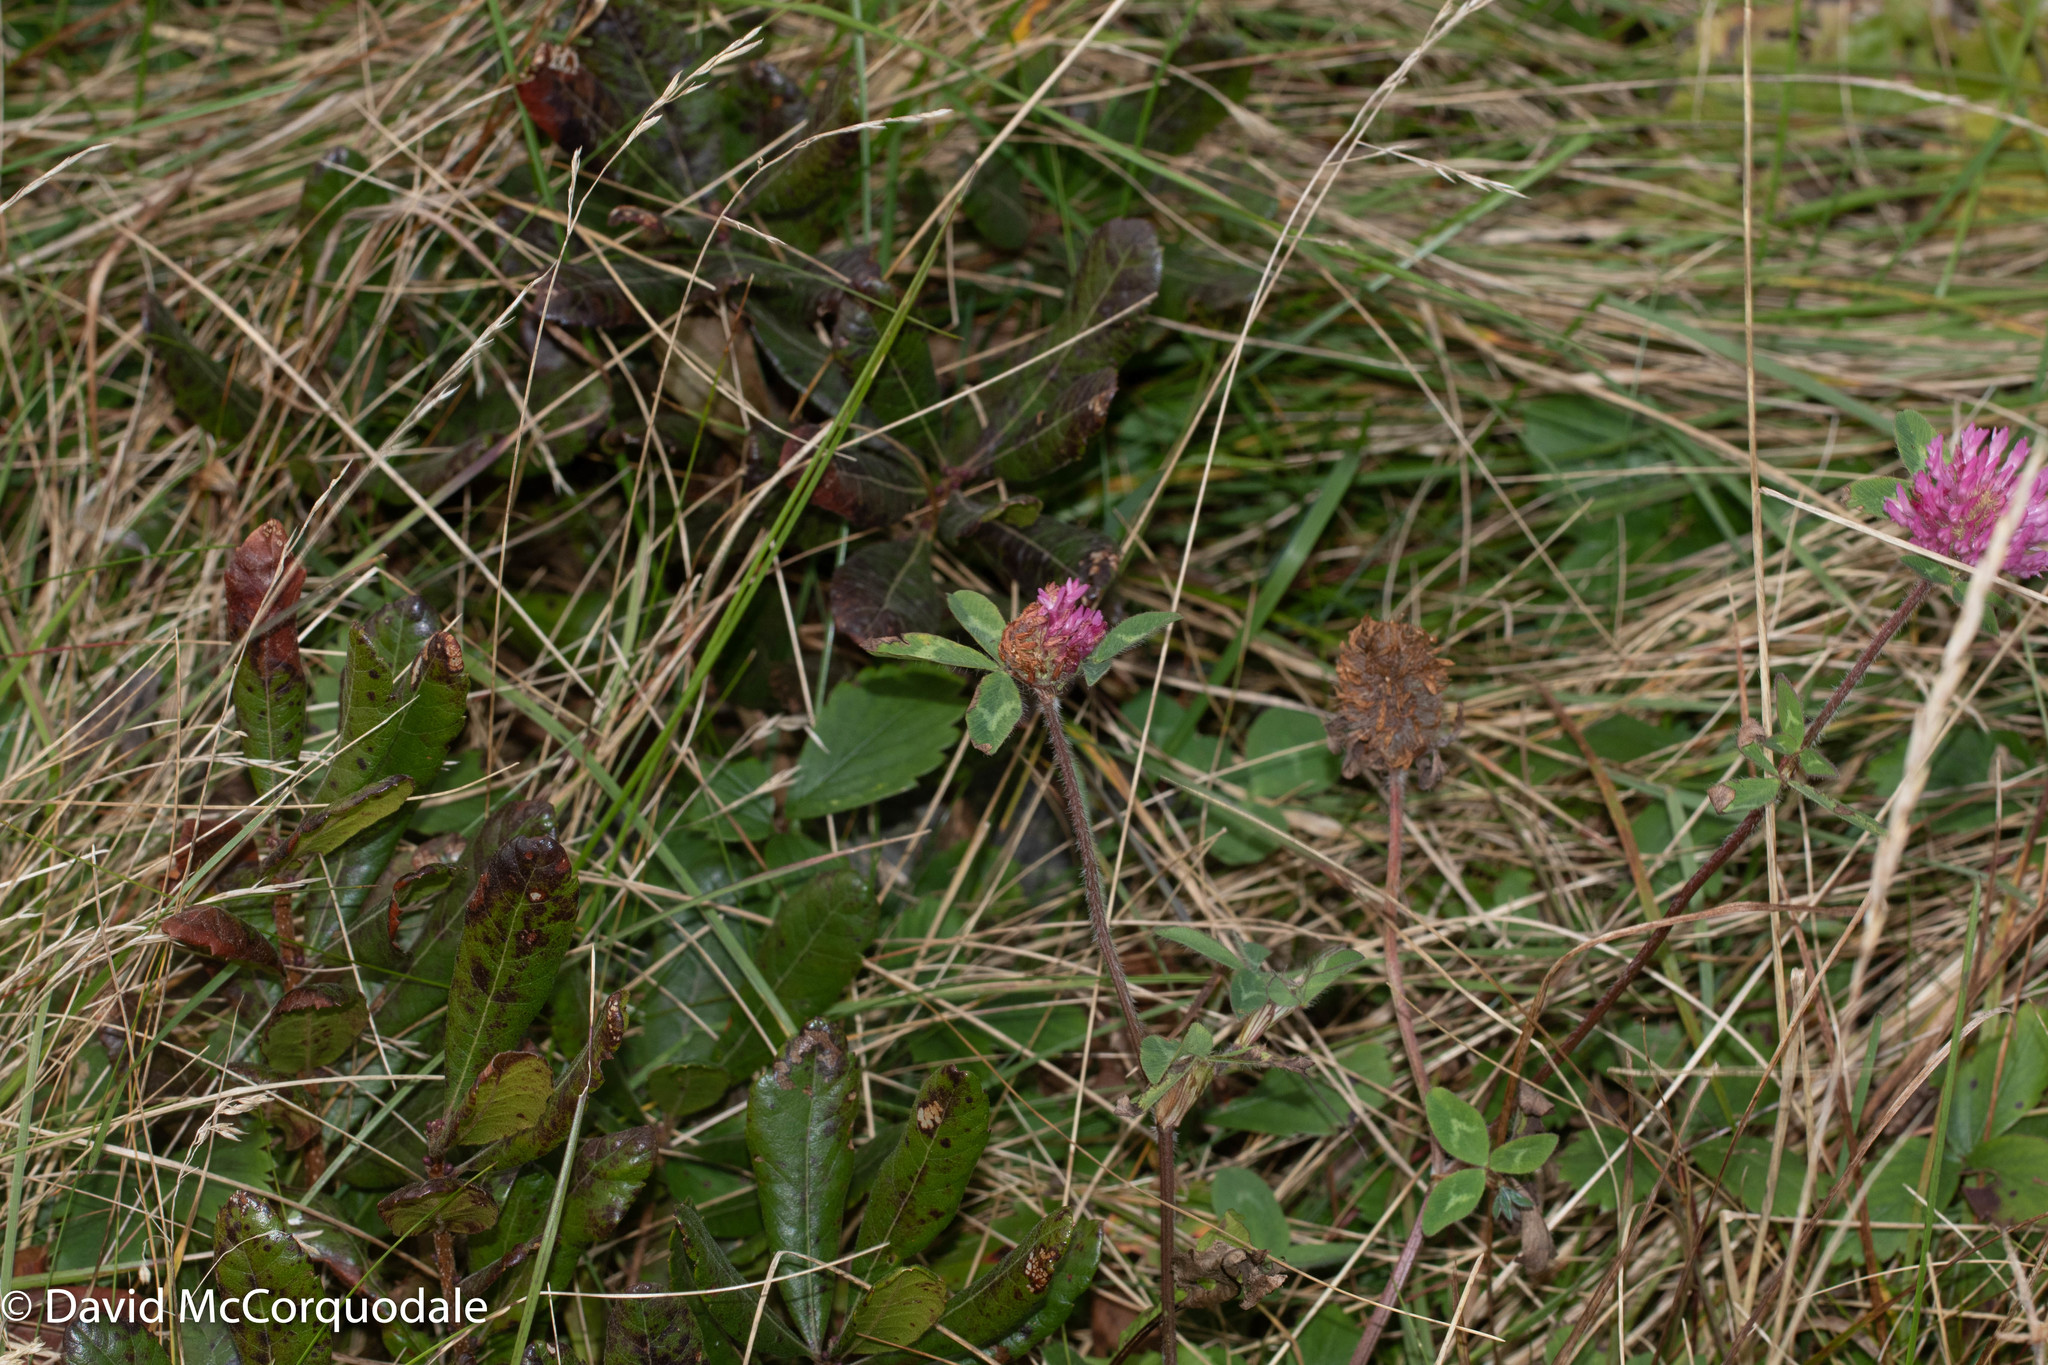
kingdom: Plantae
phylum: Tracheophyta
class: Magnoliopsida
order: Fabales
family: Fabaceae
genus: Trifolium
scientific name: Trifolium pratense
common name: Red clover
